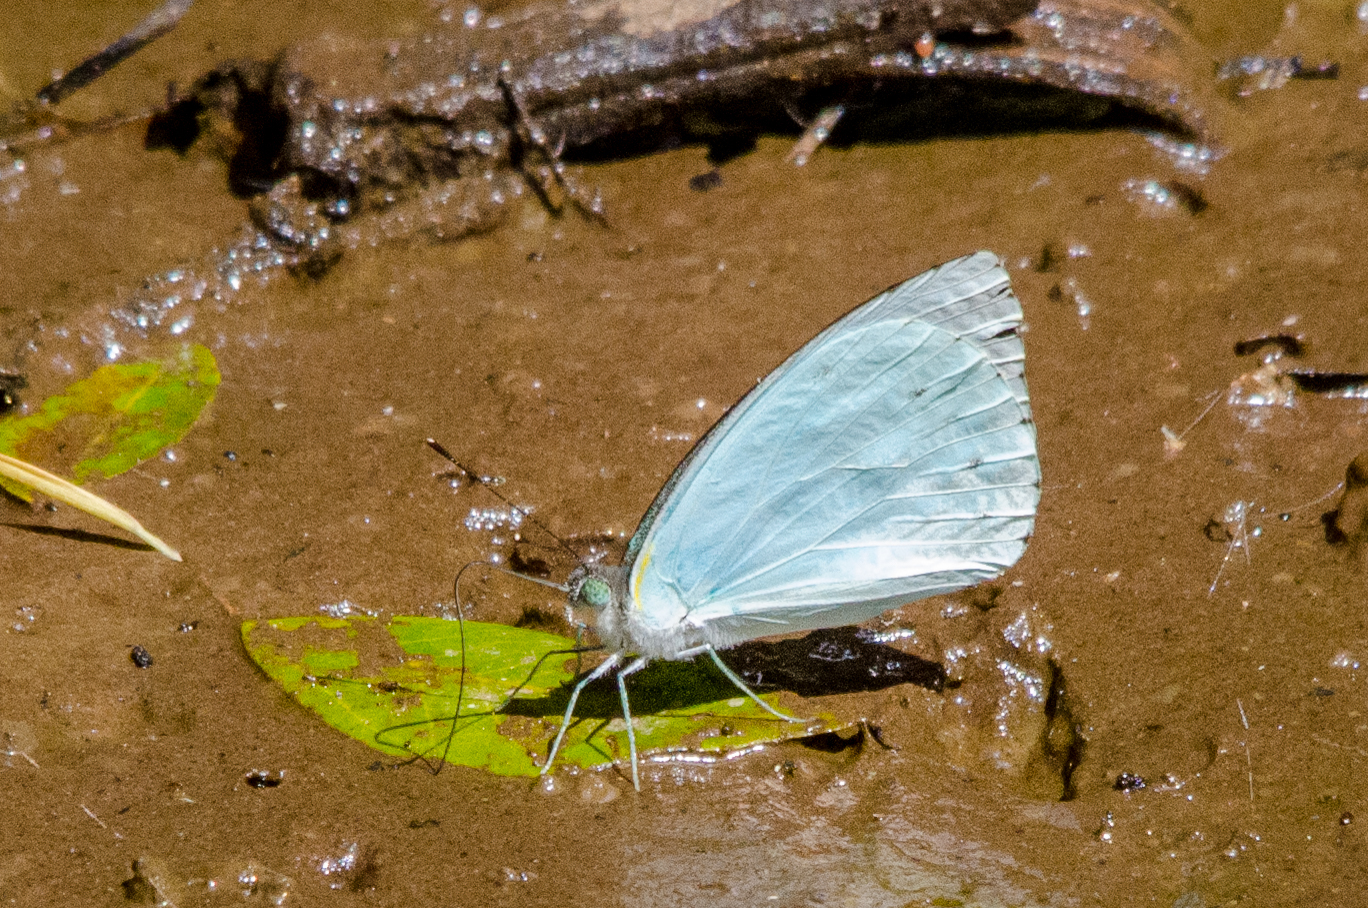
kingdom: Animalia
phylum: Arthropoda
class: Insecta
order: Lepidoptera
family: Pieridae
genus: Nepheronia
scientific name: Nepheronia thalassina
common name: Cambridge vagrant
